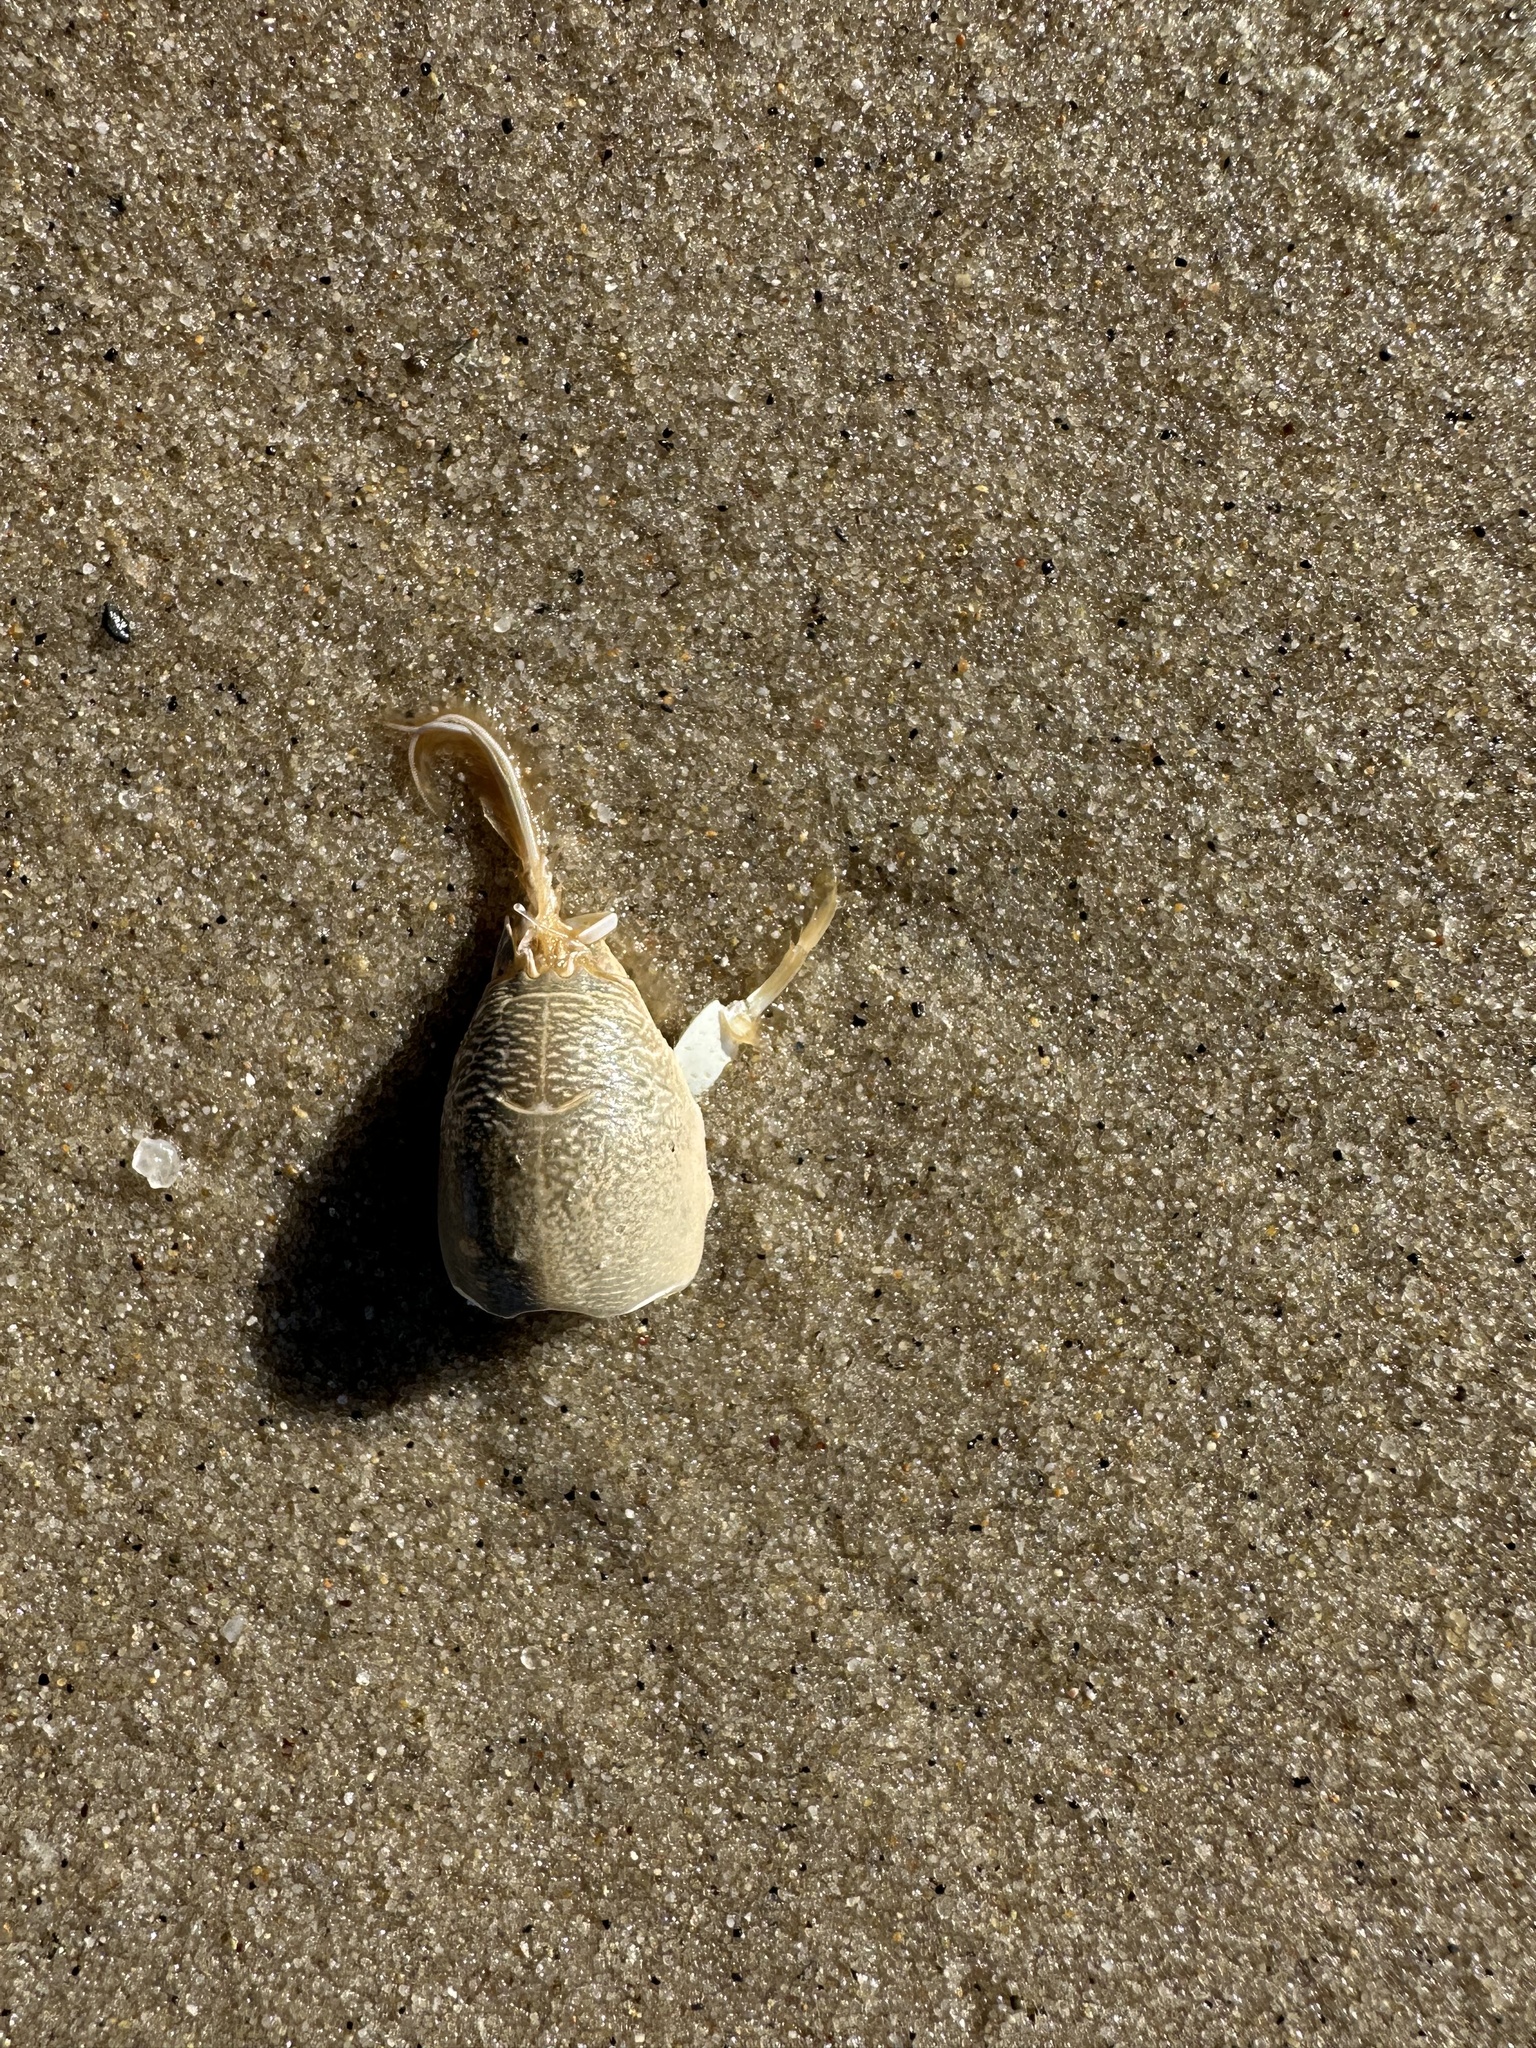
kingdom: Animalia
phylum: Arthropoda
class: Malacostraca
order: Decapoda
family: Hippidae
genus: Emerita
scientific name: Emerita talpoida
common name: Atlantic sand crab
